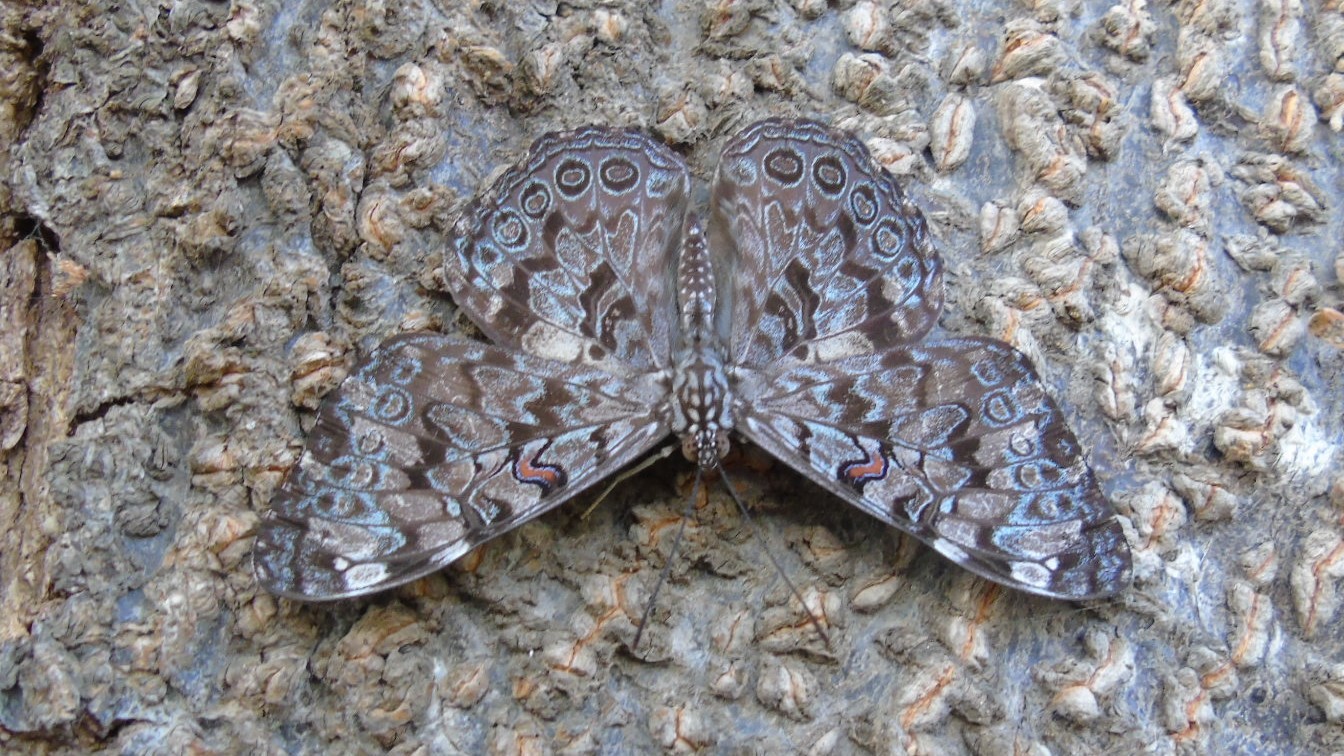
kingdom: Animalia
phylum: Arthropoda
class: Insecta
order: Lepidoptera
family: Nymphalidae
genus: Hamadryas
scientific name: Hamadryas guatemalena
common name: Guatemalan cracker
